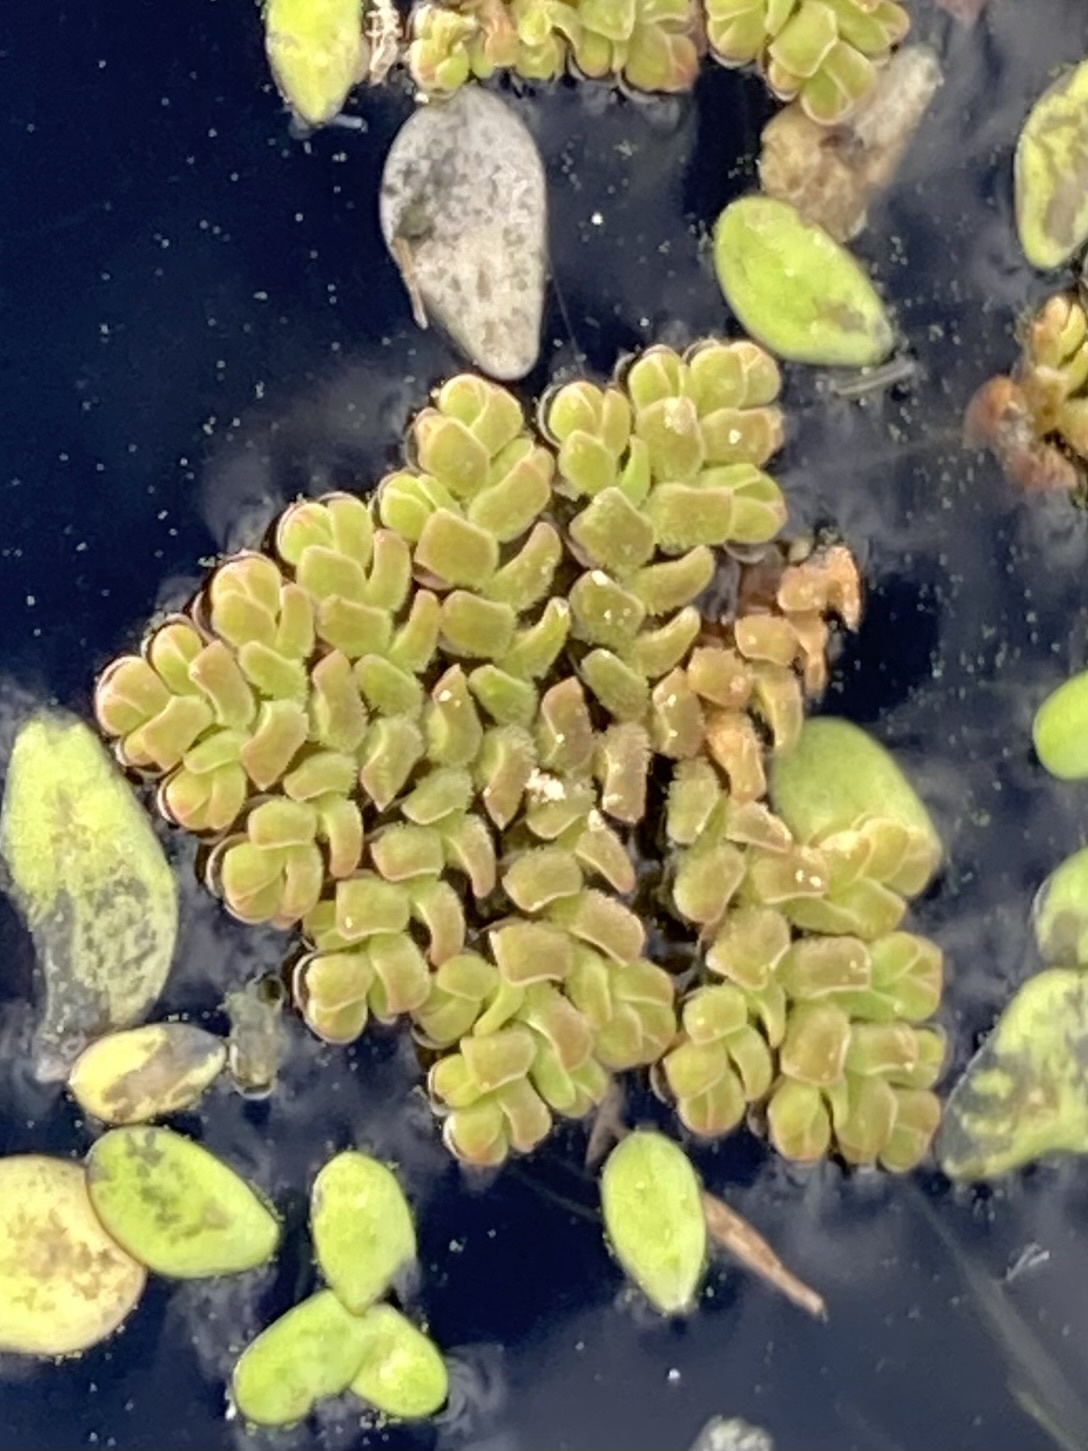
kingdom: Plantae
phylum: Tracheophyta
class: Polypodiopsida
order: Salviniales
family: Salviniaceae
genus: Azolla
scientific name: Azolla pinnata
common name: Ferny azolla
